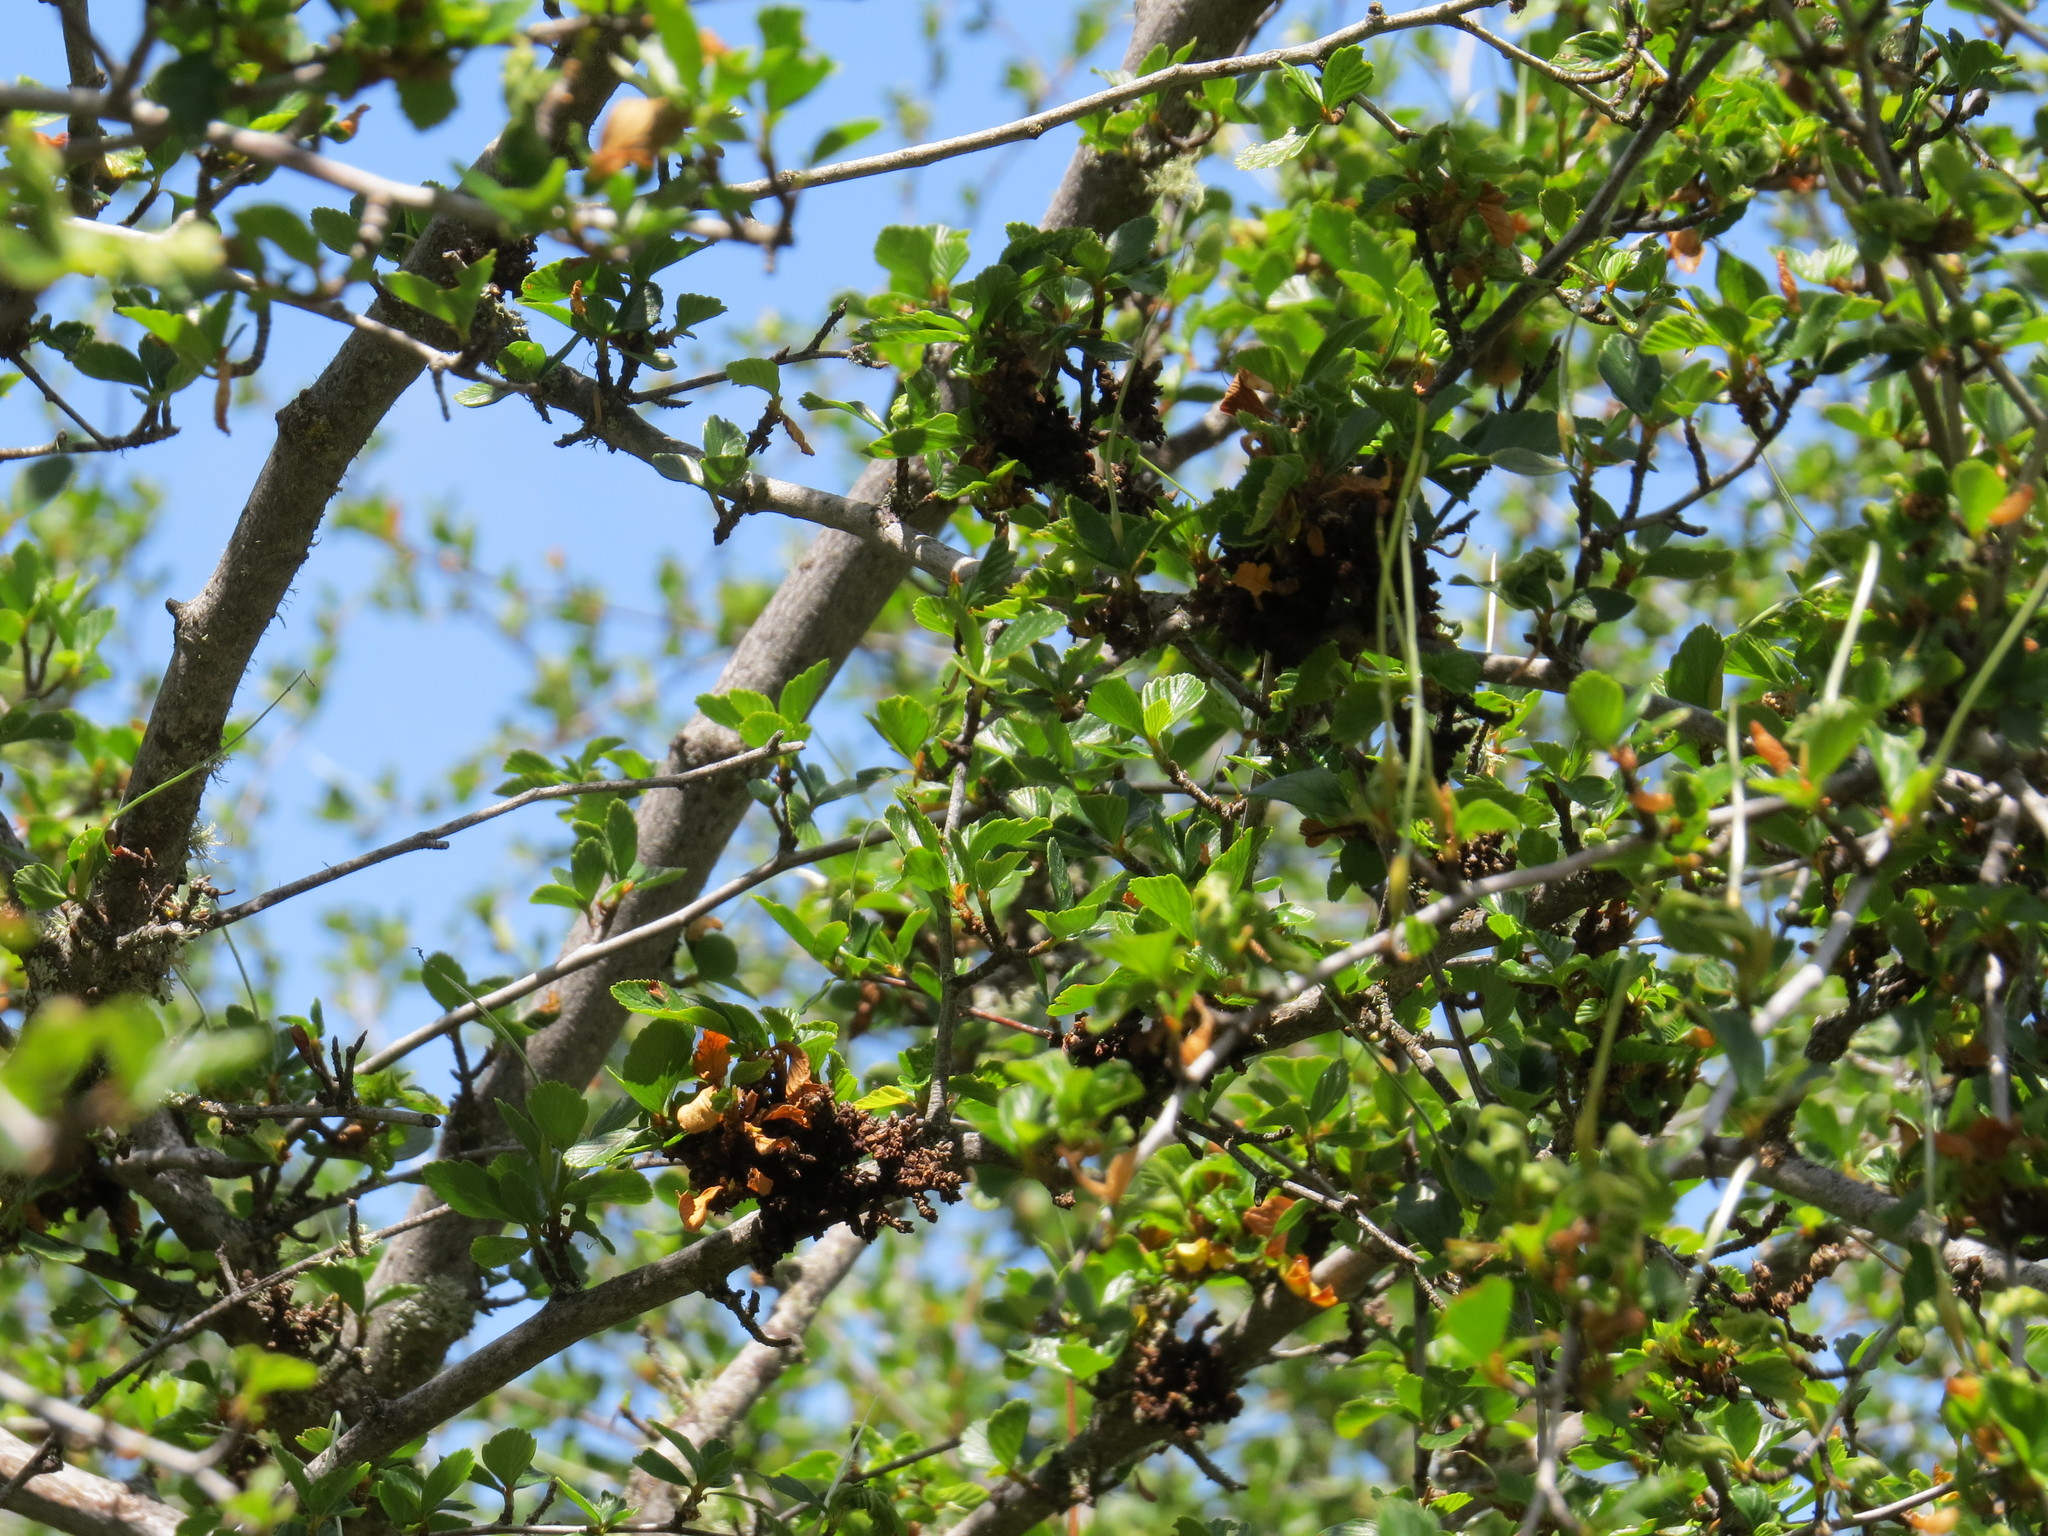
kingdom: Plantae
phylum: Tracheophyta
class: Magnoliopsida
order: Rosales
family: Rosaceae
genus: Cercocarpus
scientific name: Cercocarpus betuloides
